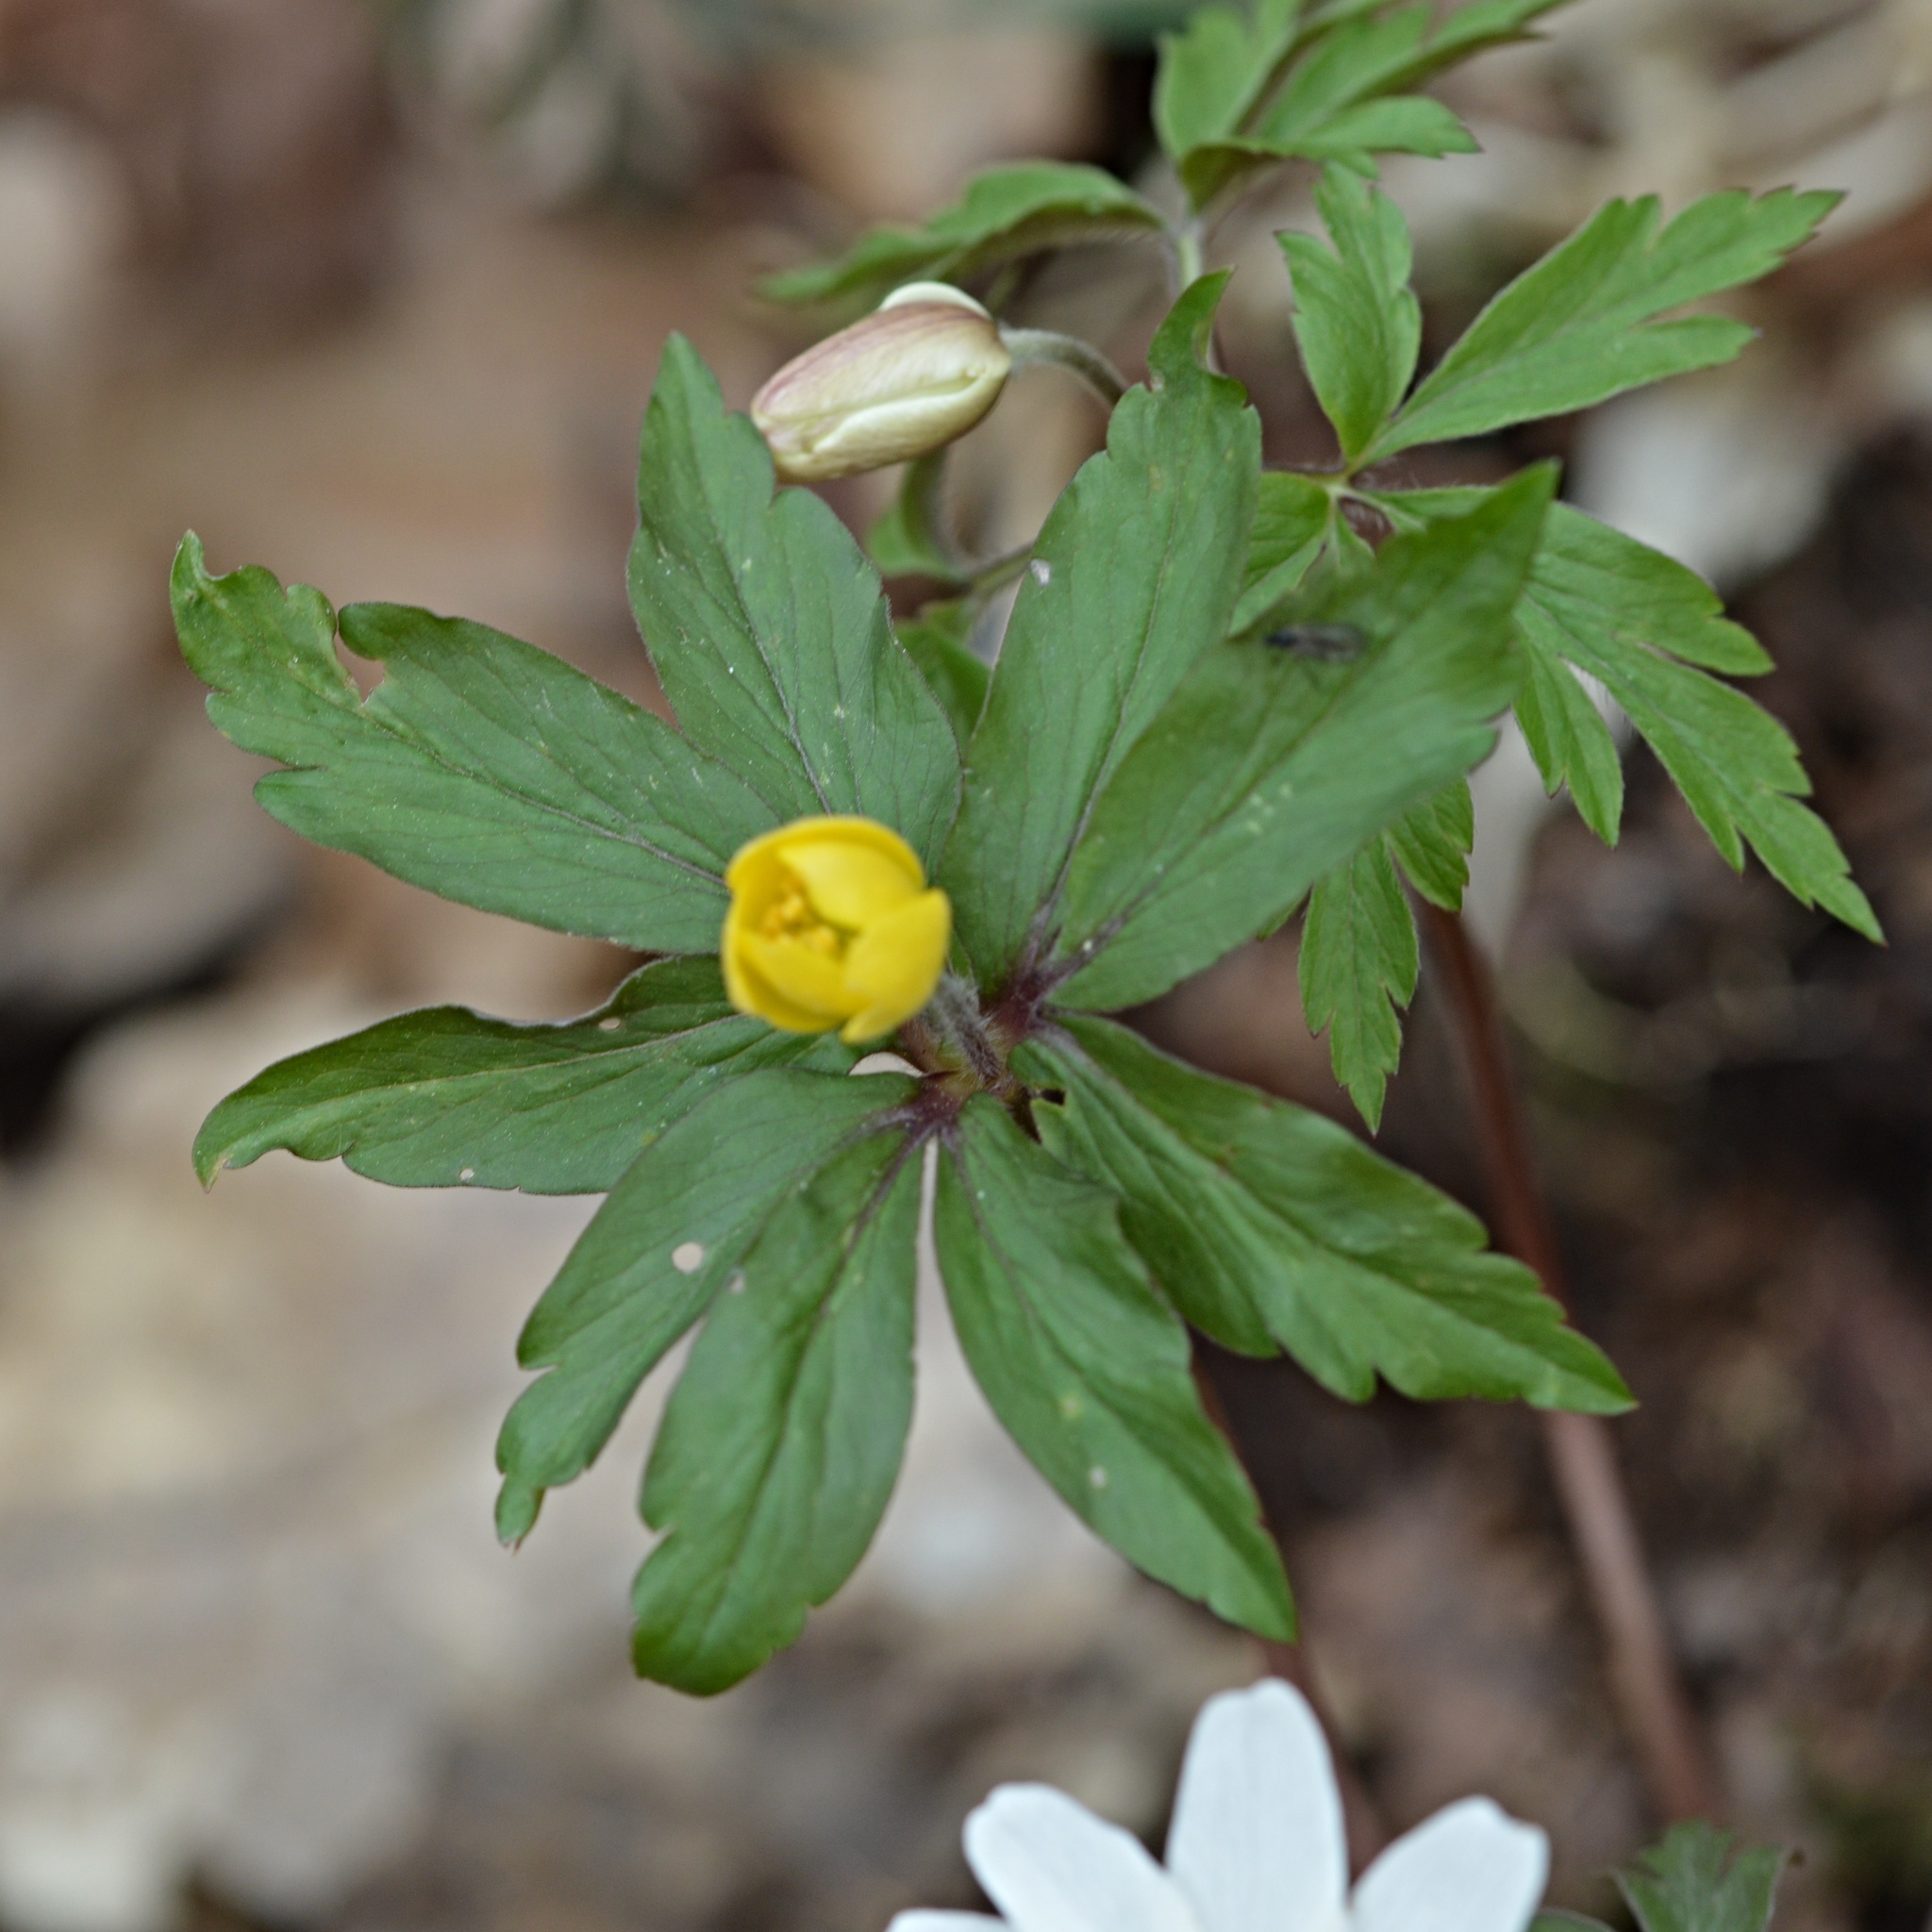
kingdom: Plantae
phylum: Tracheophyta
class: Magnoliopsida
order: Ranunculales
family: Ranunculaceae
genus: Anemone
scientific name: Anemone ranunculoides
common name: Yellow anemone
